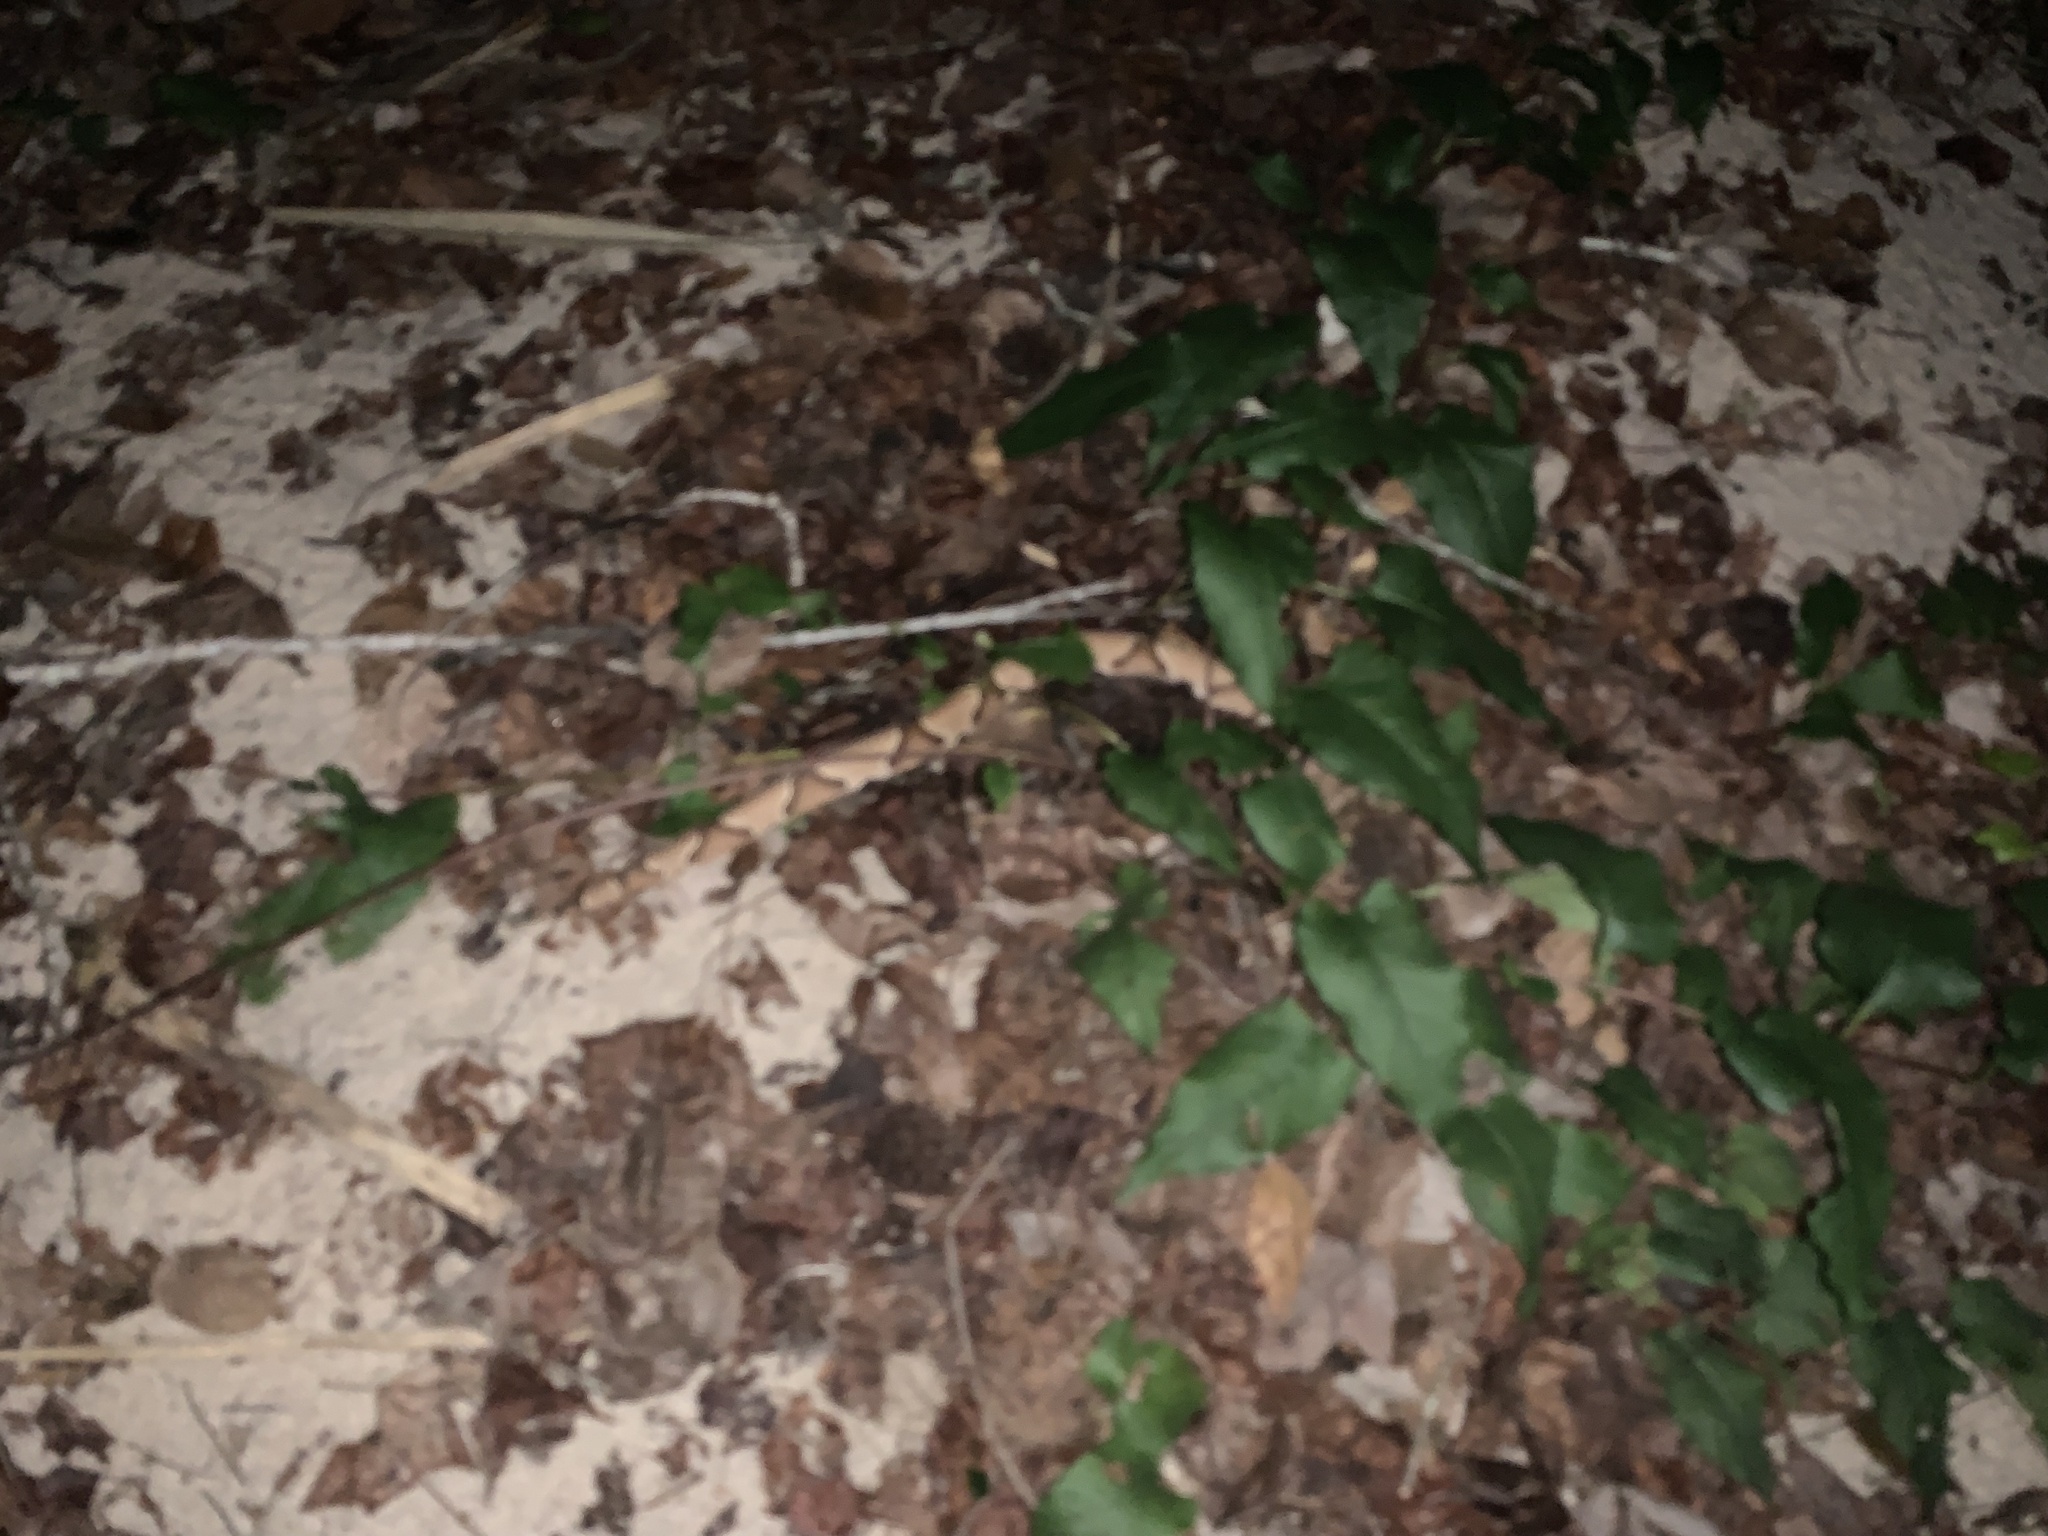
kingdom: Animalia
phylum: Chordata
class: Squamata
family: Viperidae
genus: Agkistrodon
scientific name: Agkistrodon contortrix
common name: Northern copperhead
